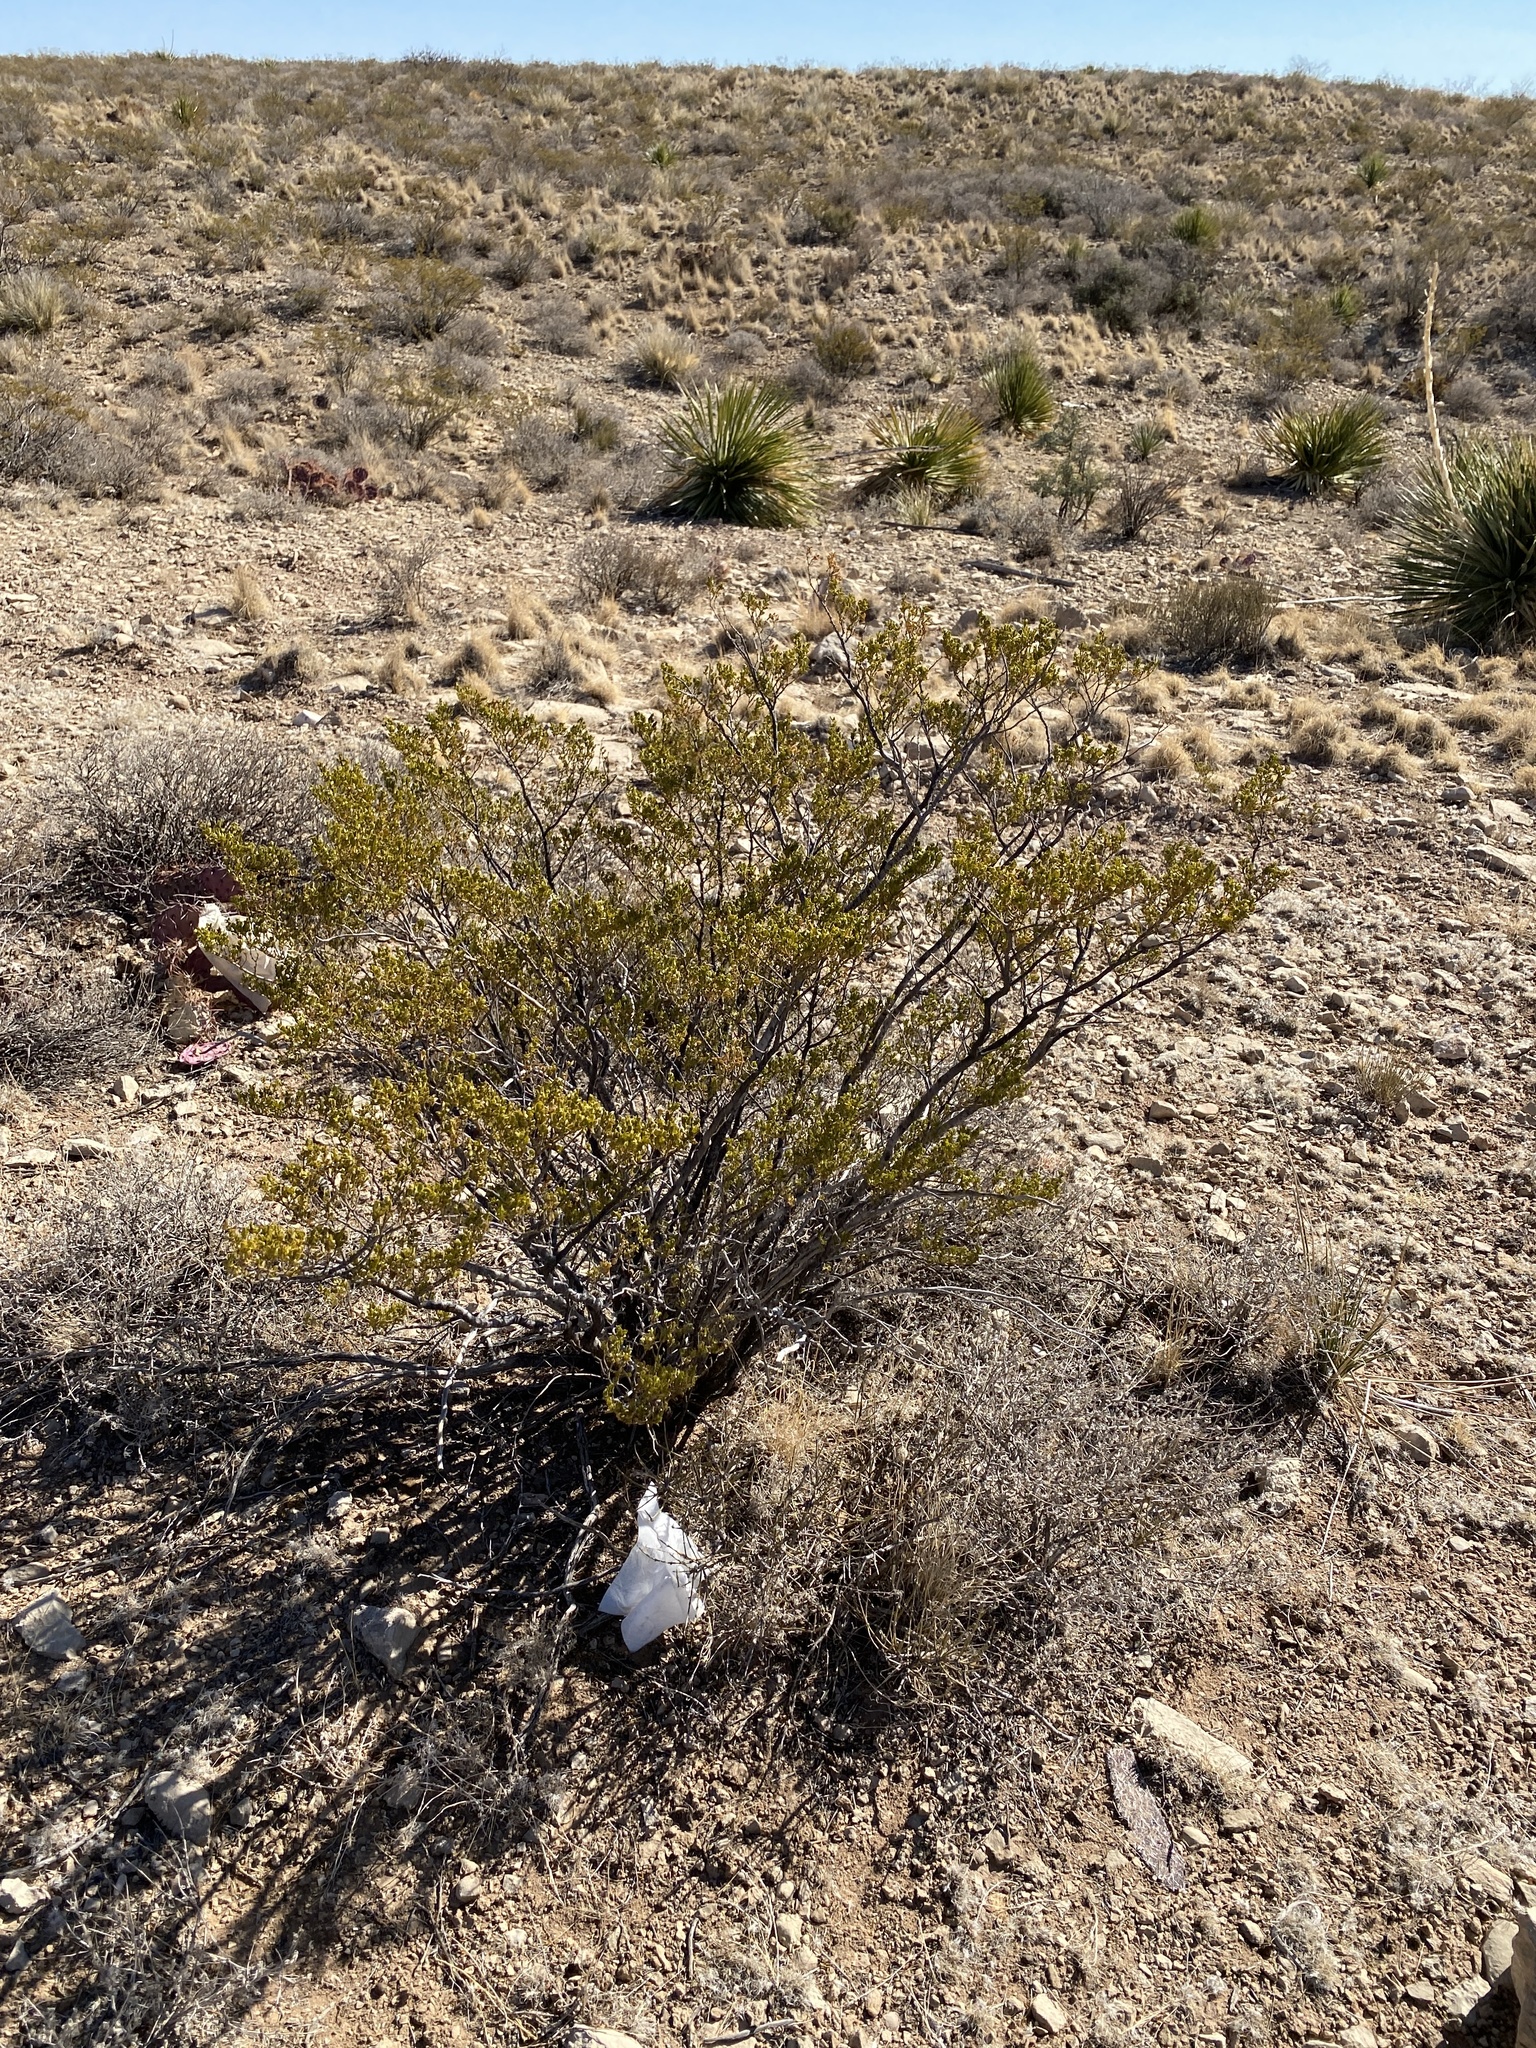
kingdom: Plantae
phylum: Tracheophyta
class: Magnoliopsida
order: Zygophyllales
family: Zygophyllaceae
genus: Larrea
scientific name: Larrea tridentata
